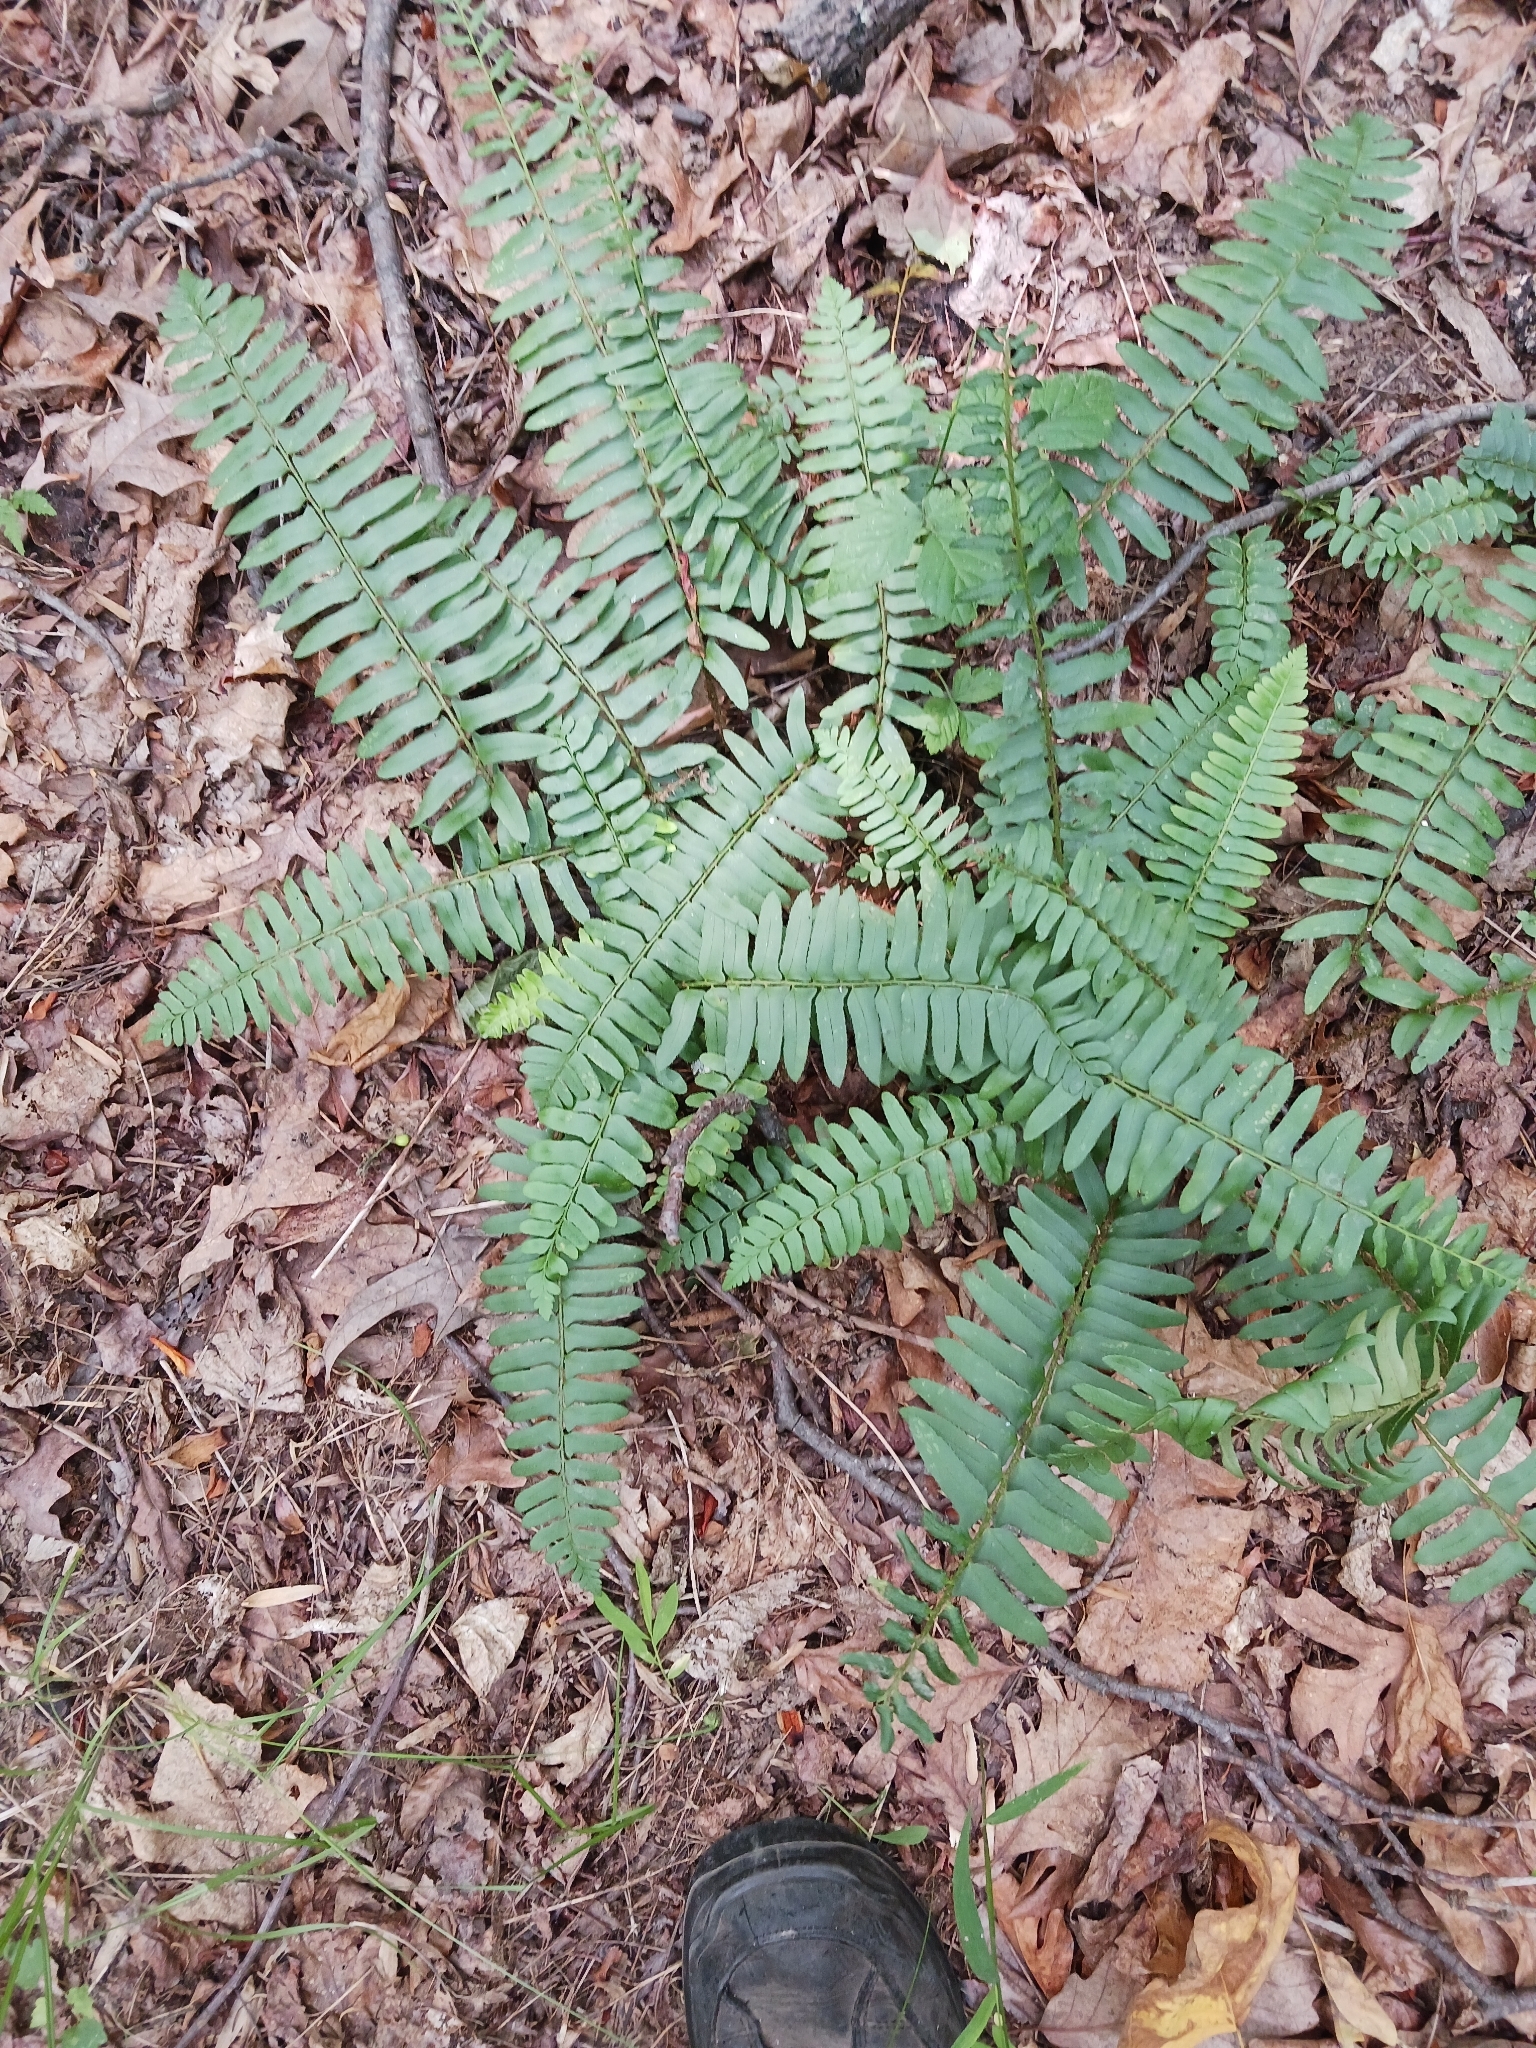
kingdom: Plantae
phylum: Tracheophyta
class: Polypodiopsida
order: Polypodiales
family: Dryopteridaceae
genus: Polystichum
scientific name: Polystichum acrostichoides
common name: Christmas fern
